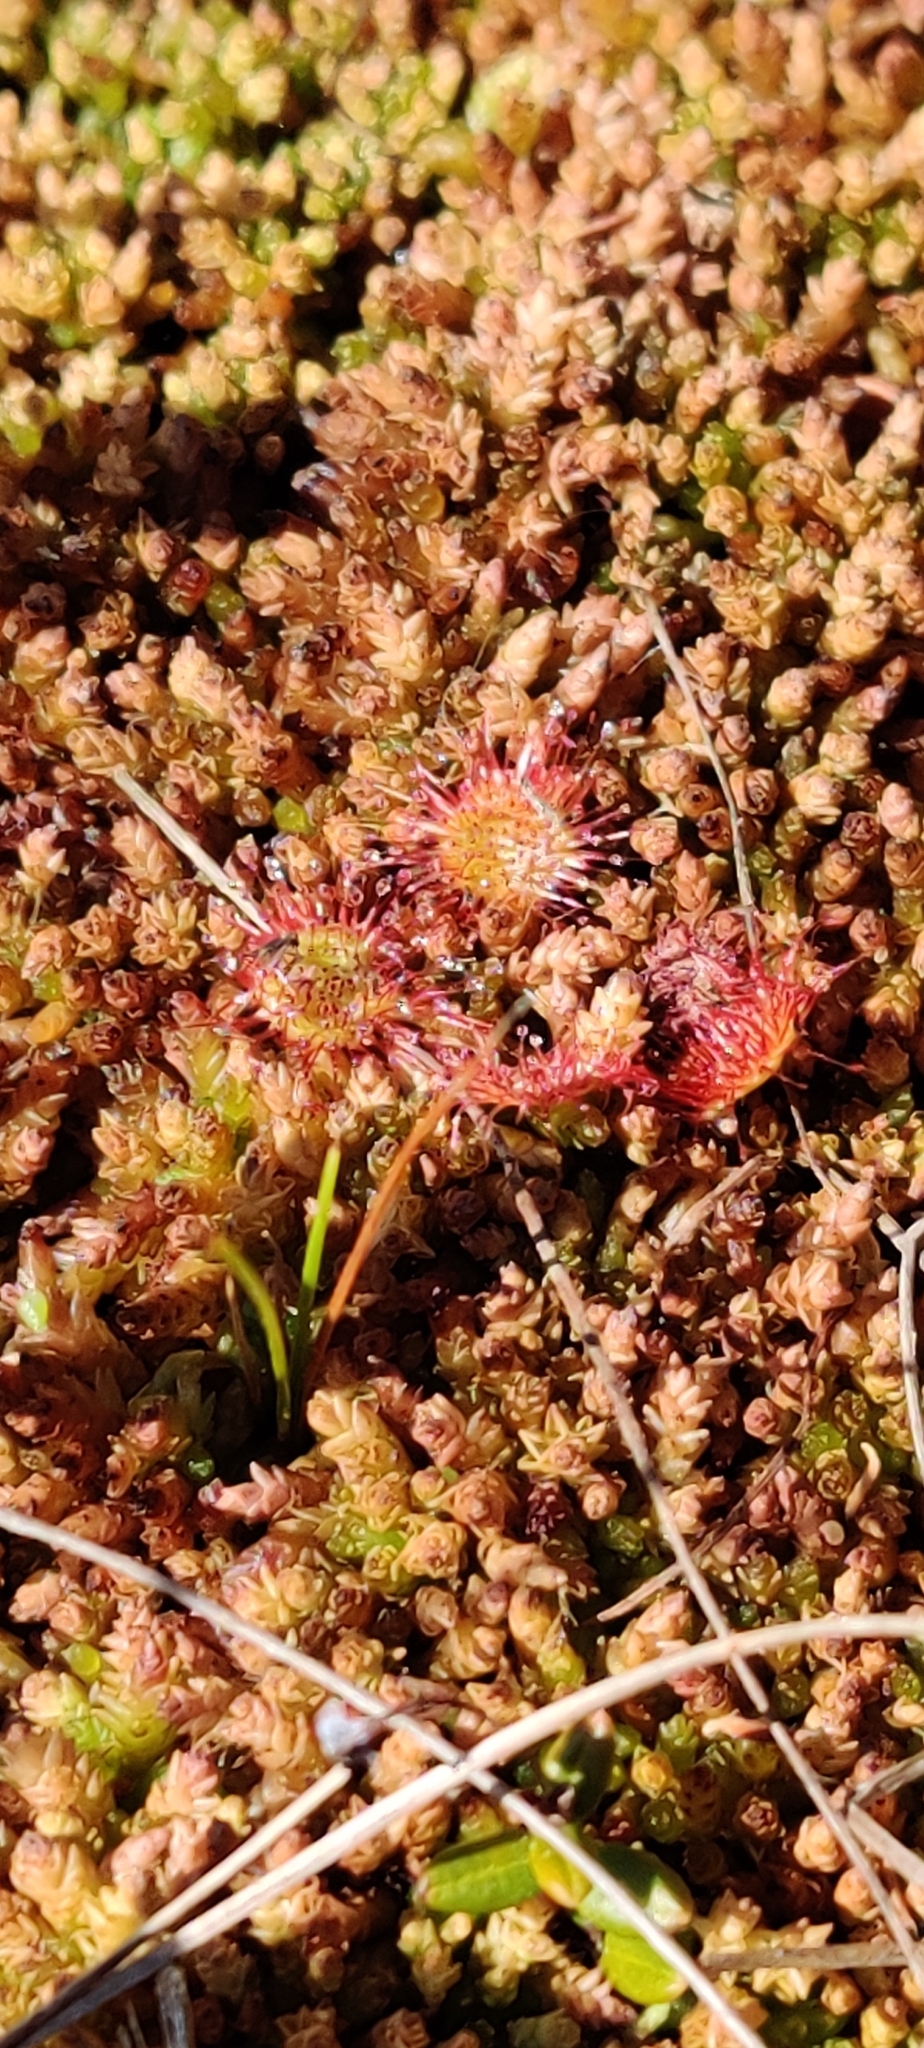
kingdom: Plantae
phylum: Tracheophyta
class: Magnoliopsida
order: Caryophyllales
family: Droseraceae
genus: Drosera
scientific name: Drosera rotundifolia
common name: Round-leaved sundew
